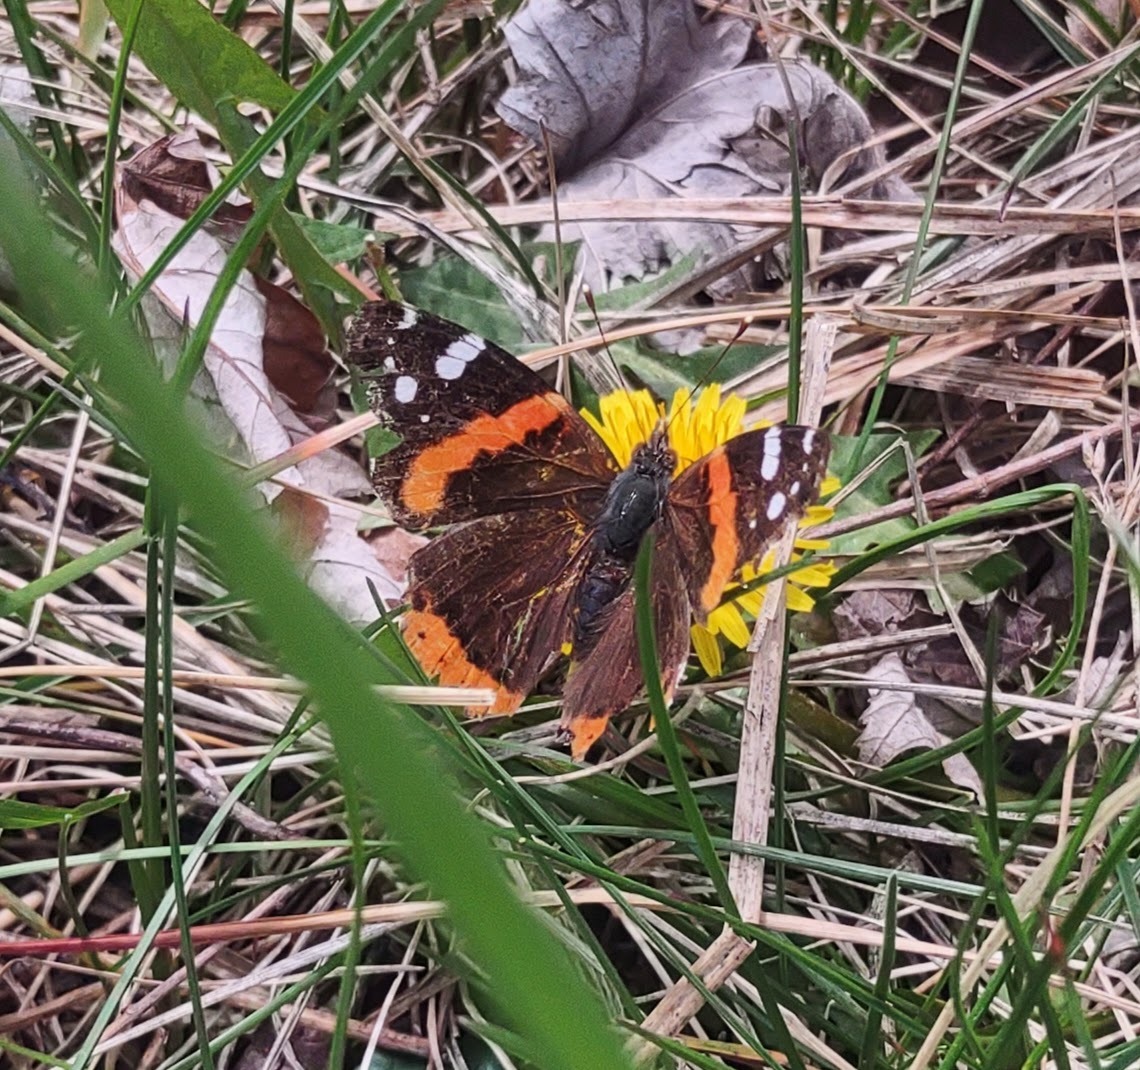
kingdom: Animalia
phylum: Arthropoda
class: Insecta
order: Lepidoptera
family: Nymphalidae
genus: Vanessa
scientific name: Vanessa atalanta
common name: Red admiral
